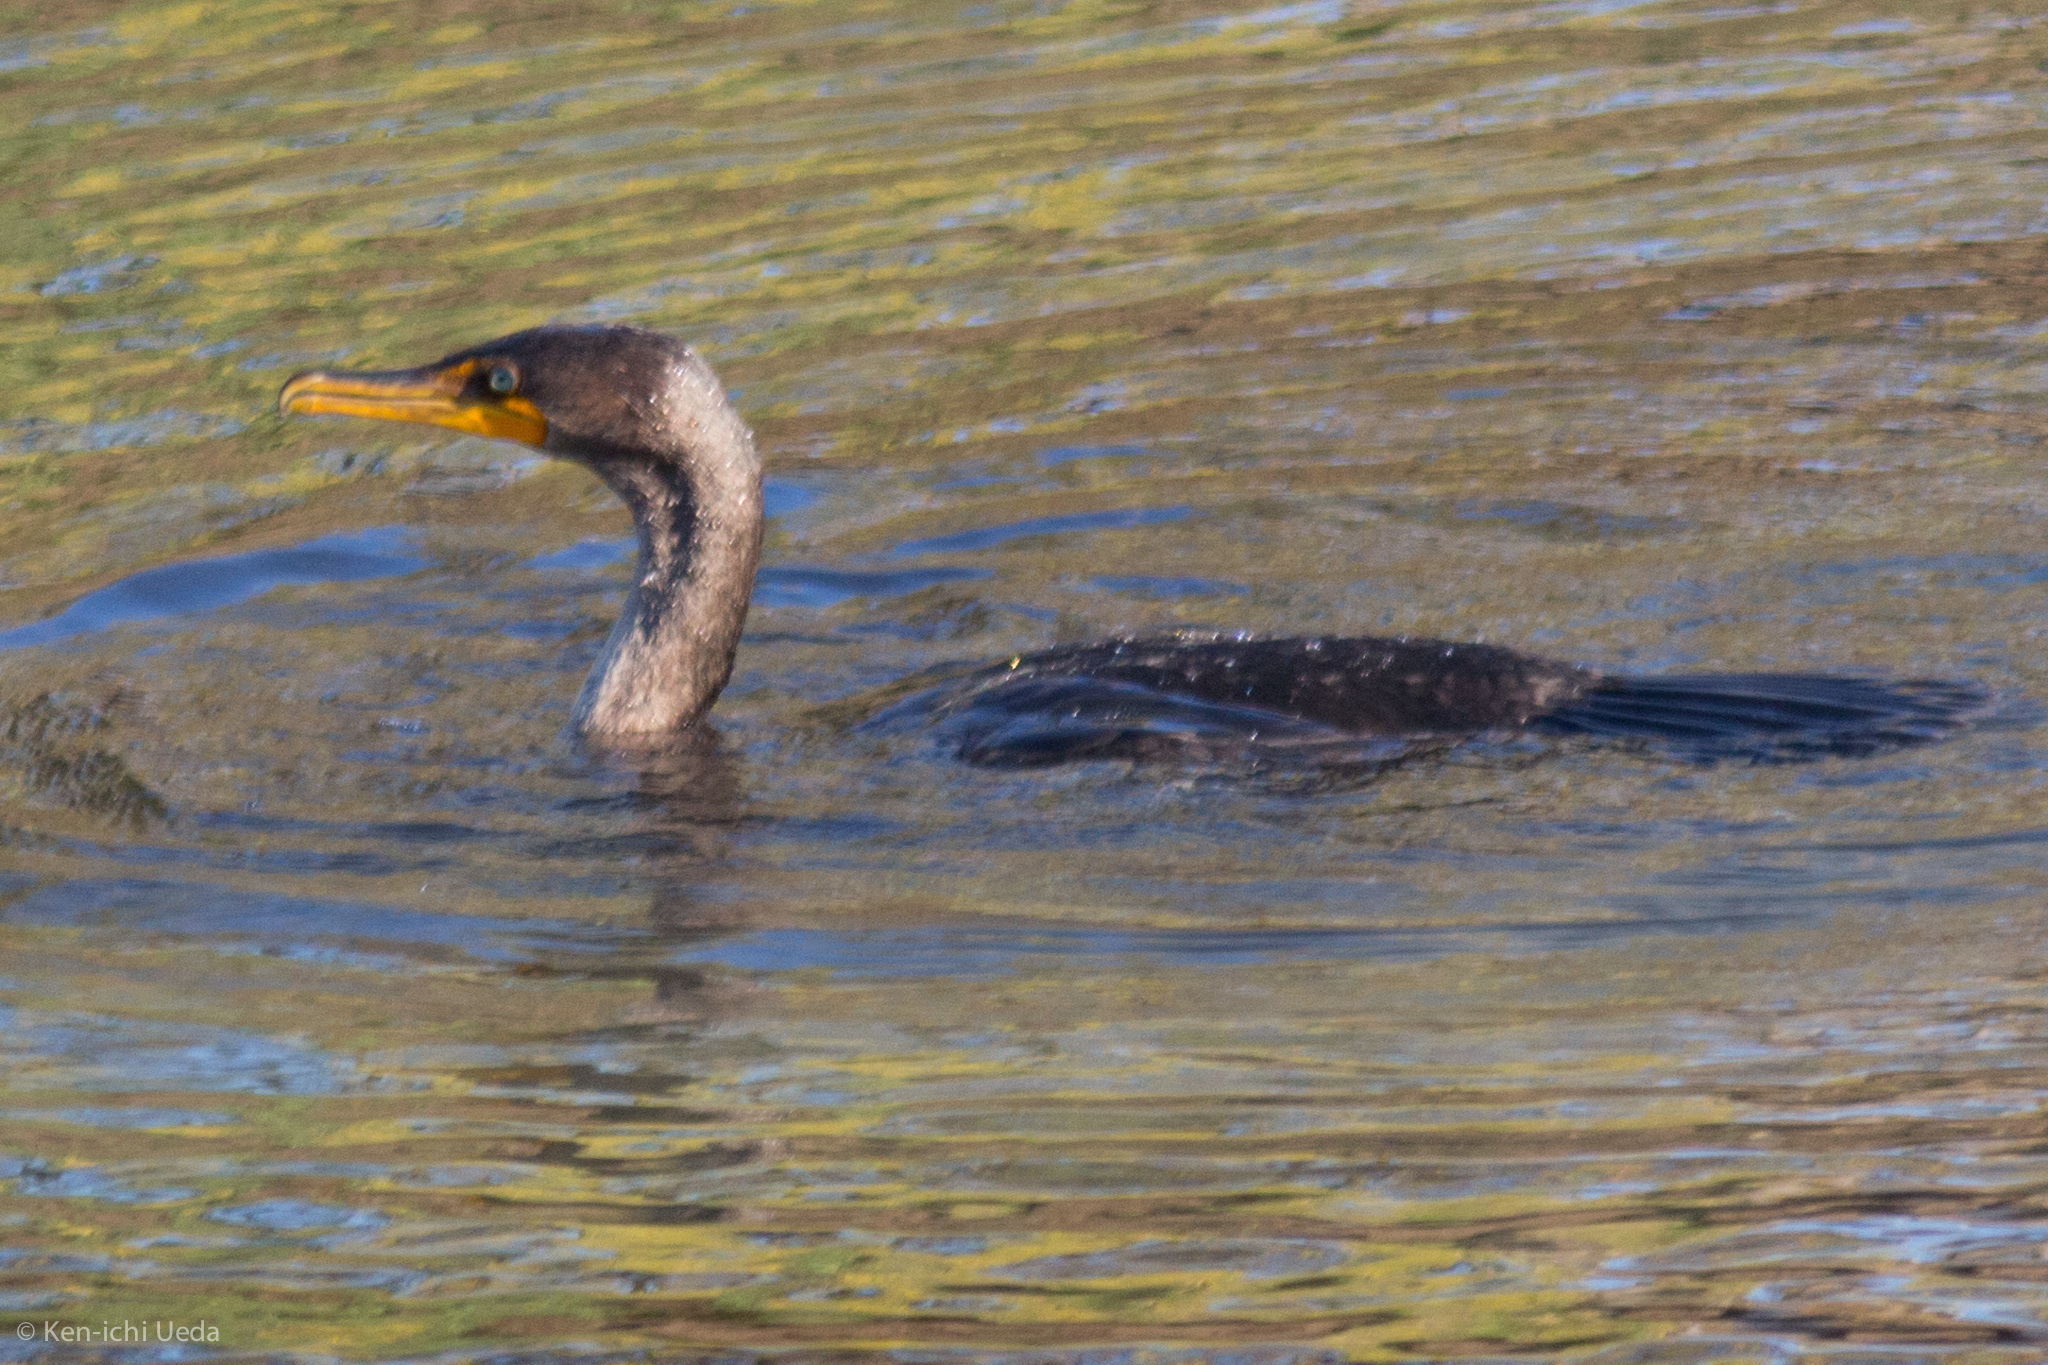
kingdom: Animalia
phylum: Chordata
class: Aves
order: Suliformes
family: Phalacrocoracidae
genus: Phalacrocorax
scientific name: Phalacrocorax auritus
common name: Double-crested cormorant
